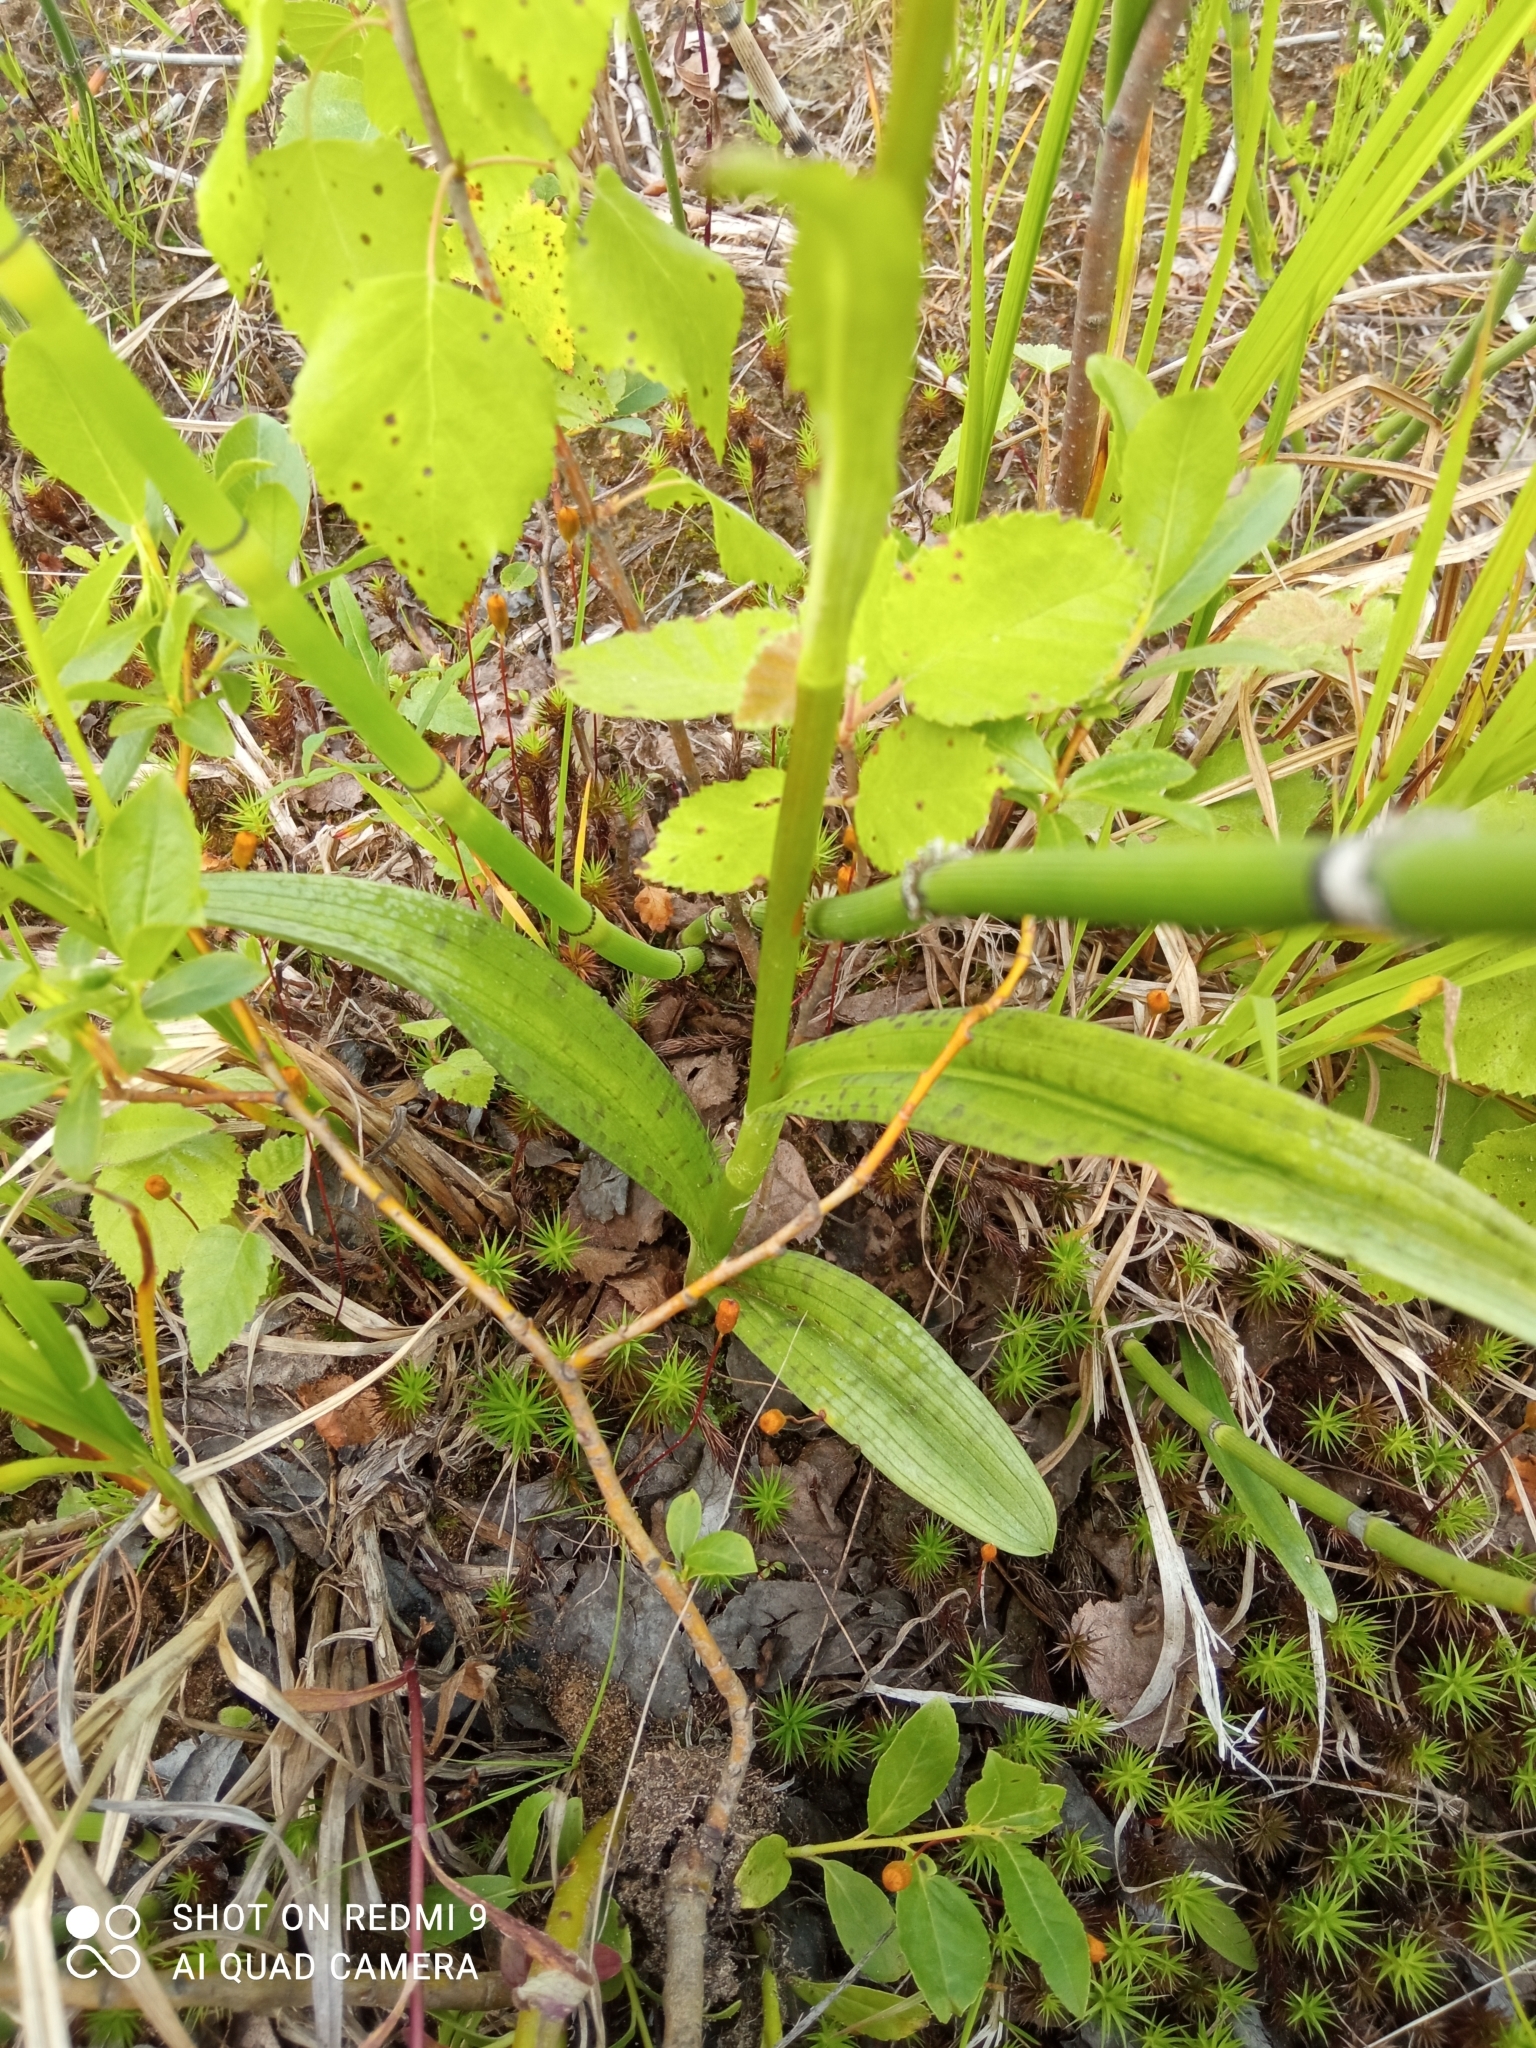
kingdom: Plantae
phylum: Tracheophyta
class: Liliopsida
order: Asparagales
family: Orchidaceae
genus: Dactylorhiza
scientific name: Dactylorhiza maculata
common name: Heath spotted-orchid
